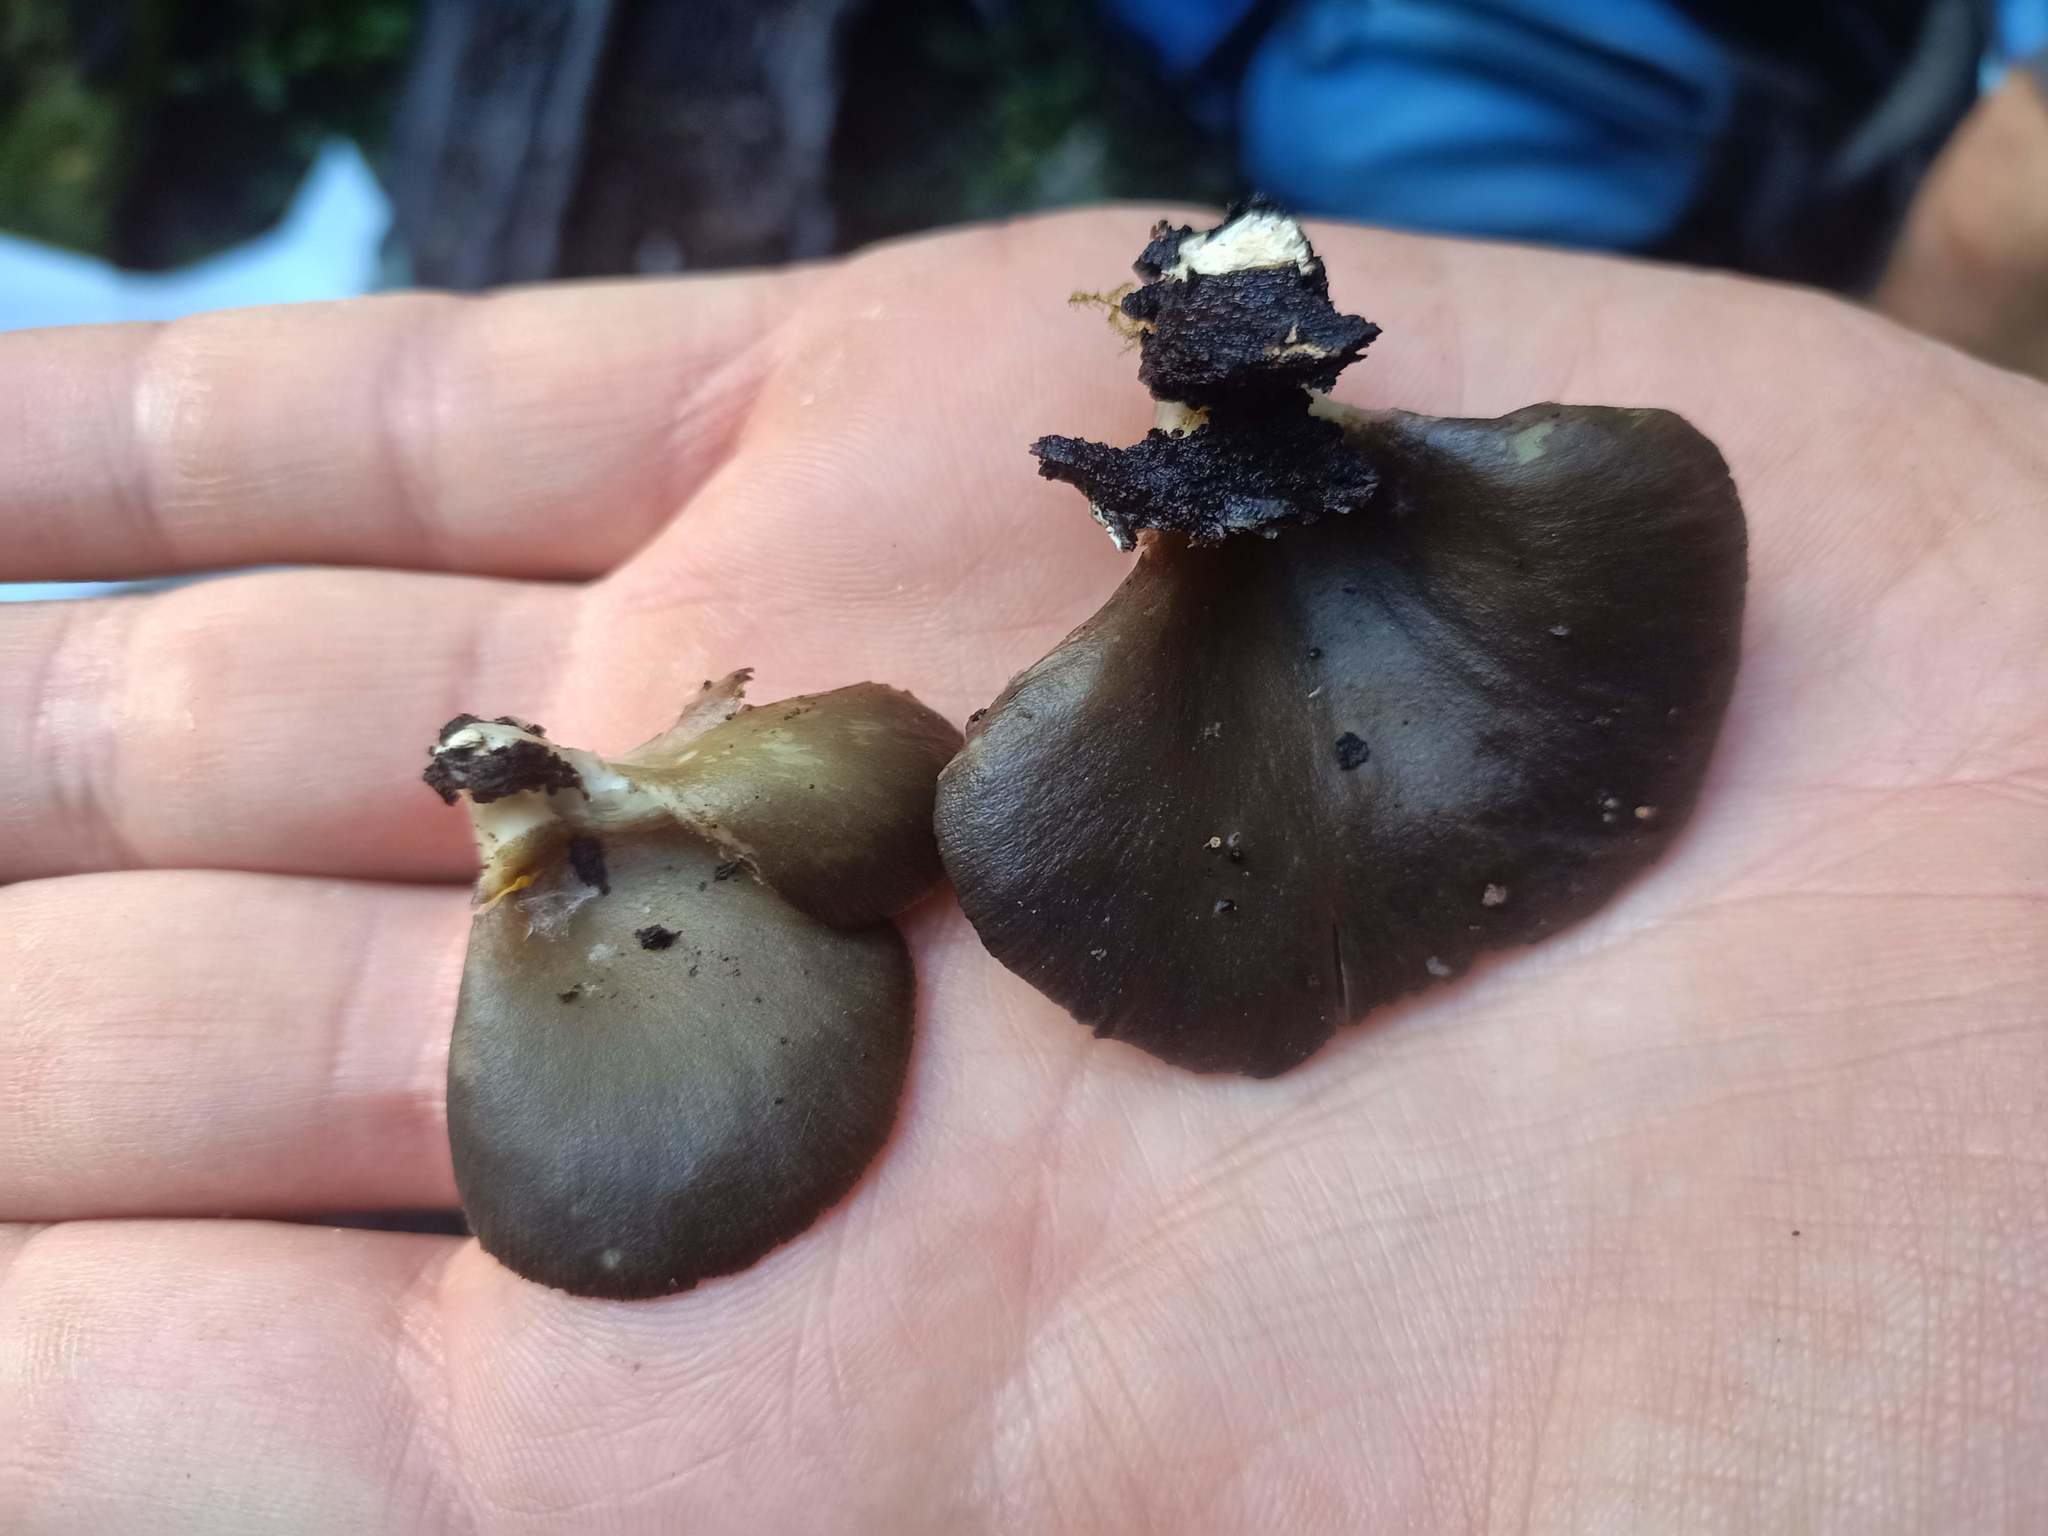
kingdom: Fungi
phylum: Basidiomycota
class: Agaricomycetes
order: Agaricales
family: Pleurotaceae
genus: Pleurotus
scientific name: Pleurotus purpureo-olivaceus
